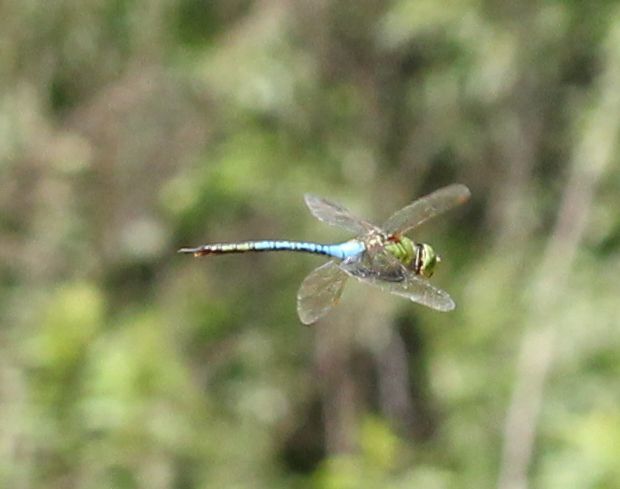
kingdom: Animalia
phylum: Arthropoda
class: Insecta
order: Odonata
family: Aeshnidae
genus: Anax
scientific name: Anax junius
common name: Common green darner
